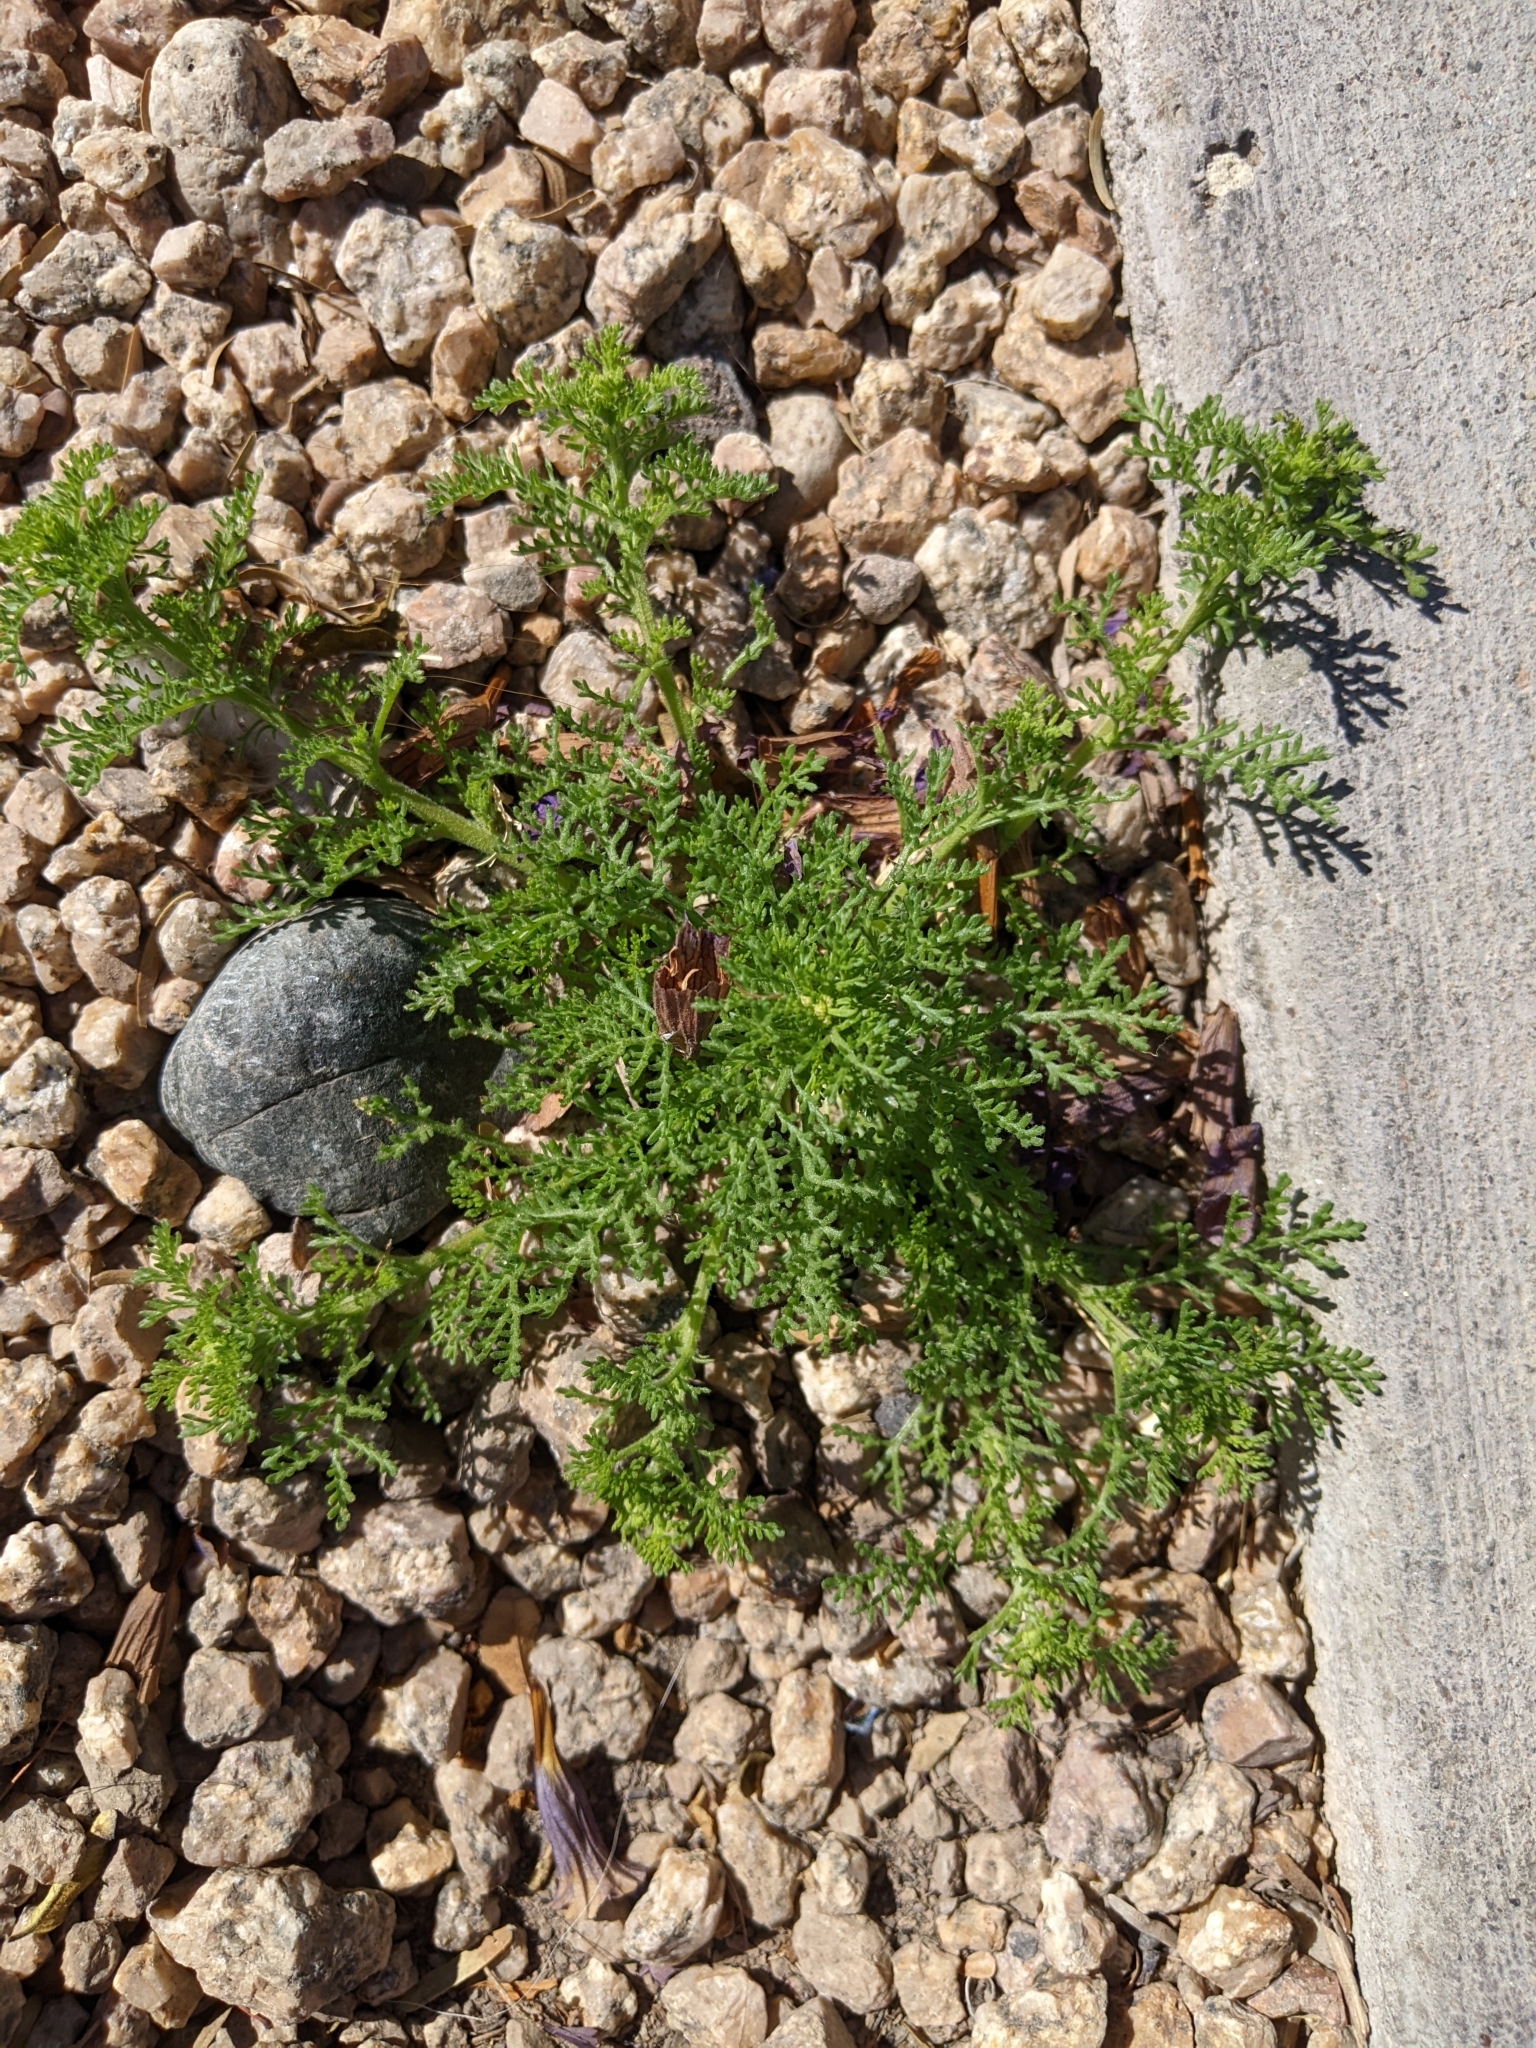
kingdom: Plantae
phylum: Tracheophyta
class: Magnoliopsida
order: Asterales
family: Asteraceae
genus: Oncosiphon
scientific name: Oncosiphon pilulifer
